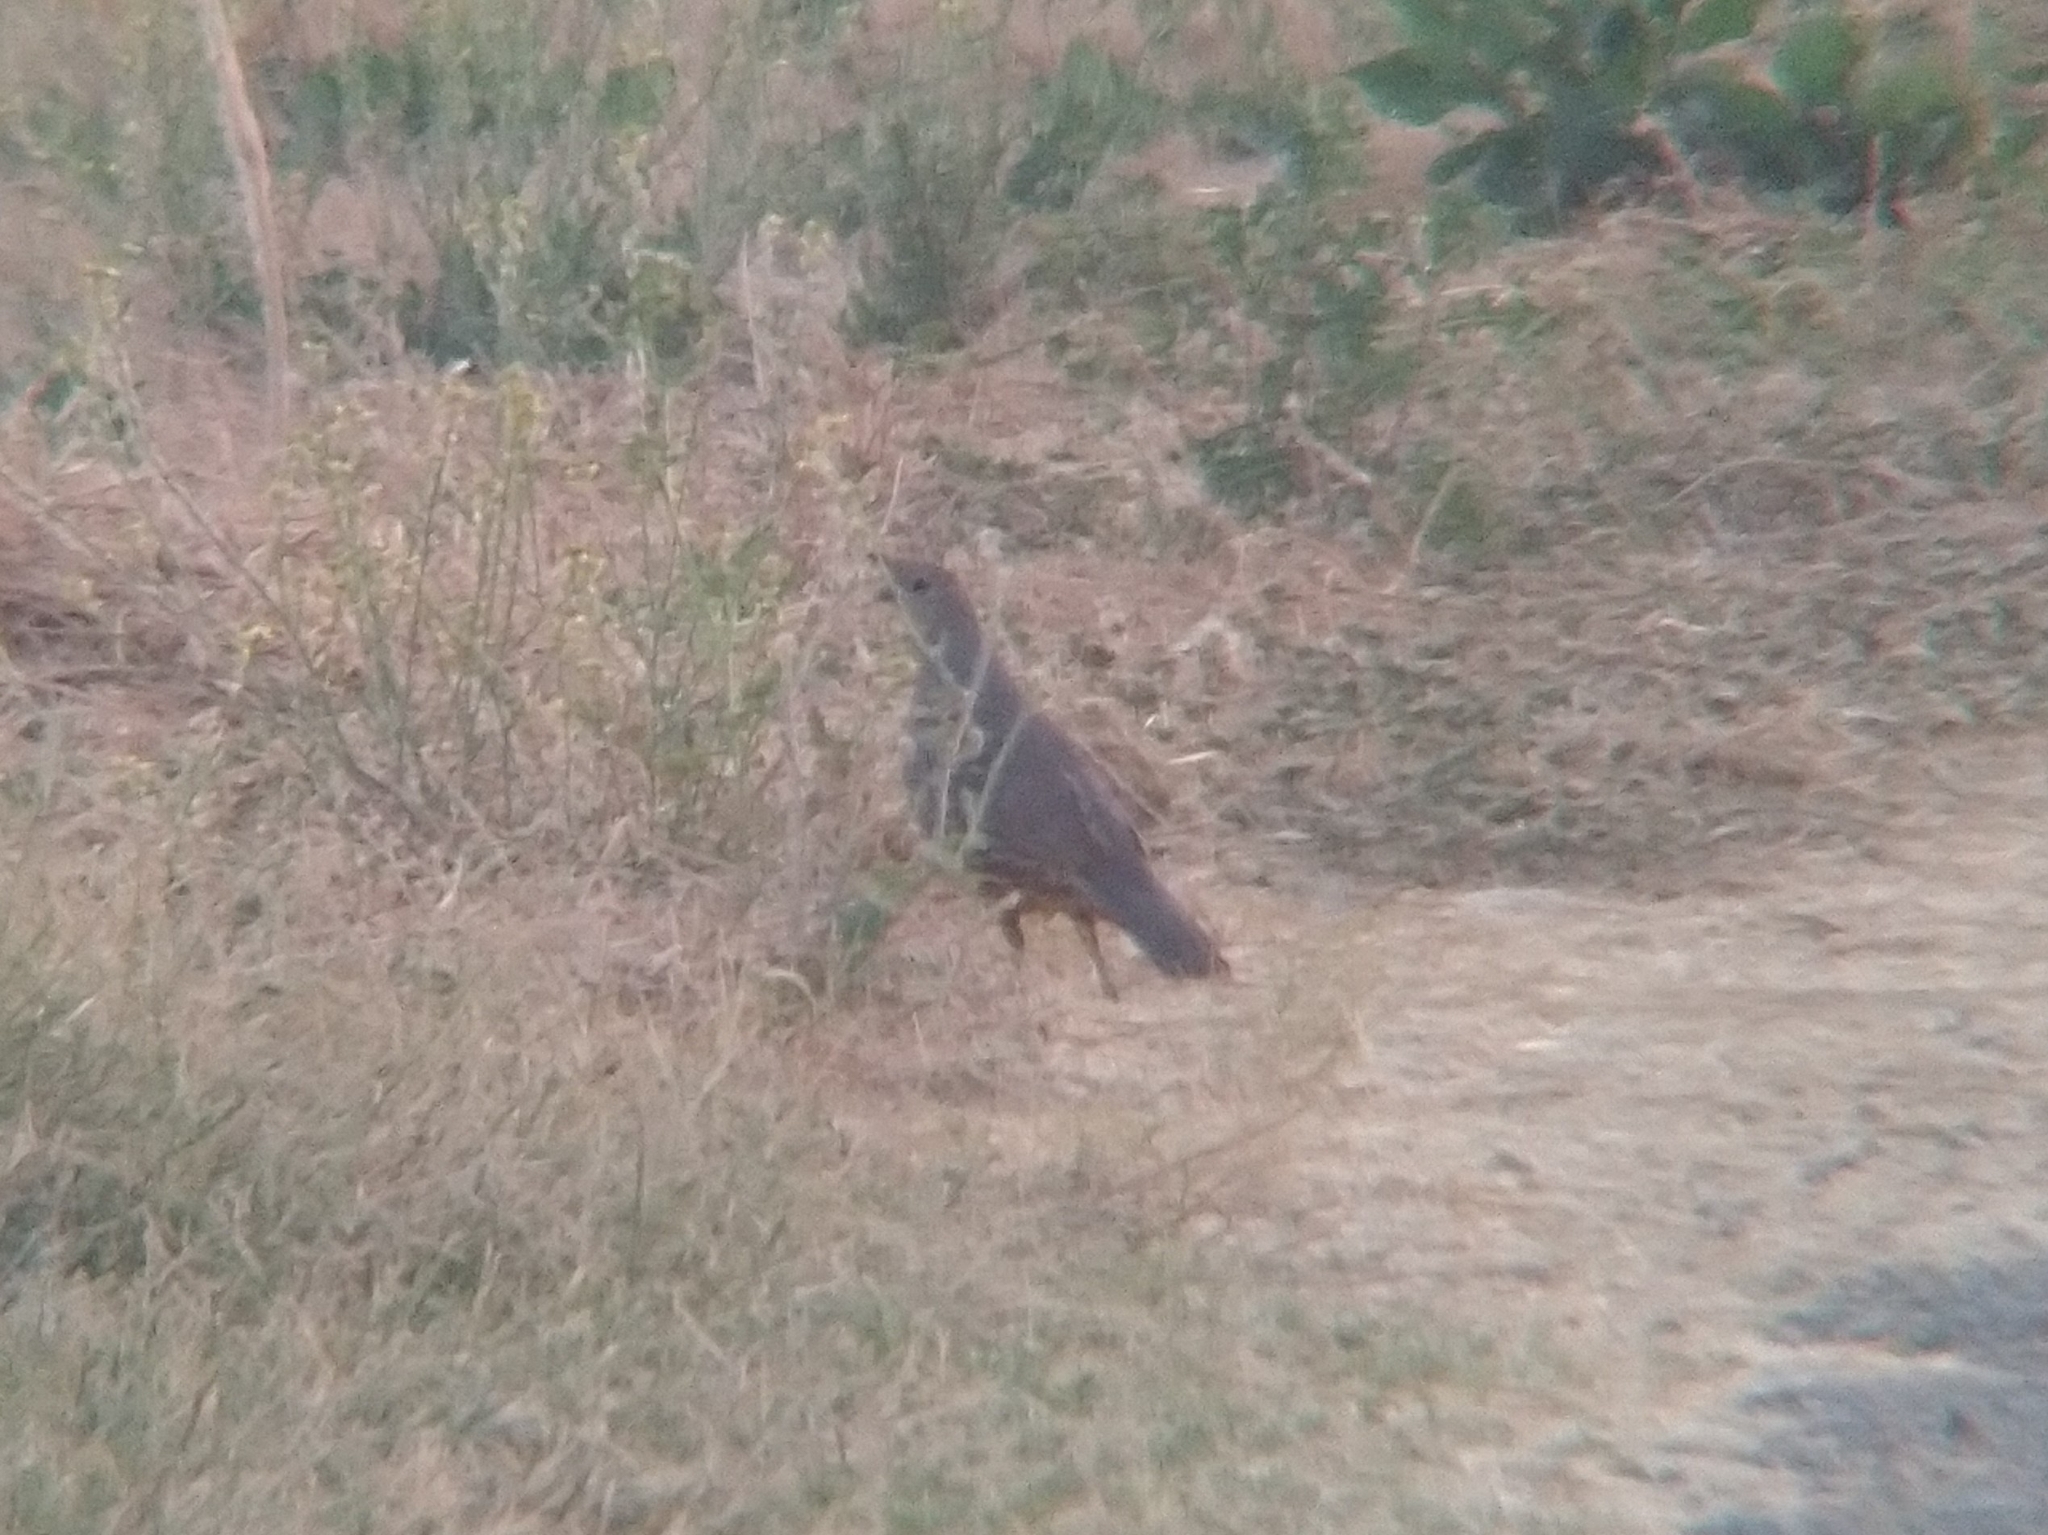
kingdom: Animalia
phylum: Chordata
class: Aves
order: Galliformes
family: Odontophoridae
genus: Callipepla
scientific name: Callipepla californica
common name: California quail
